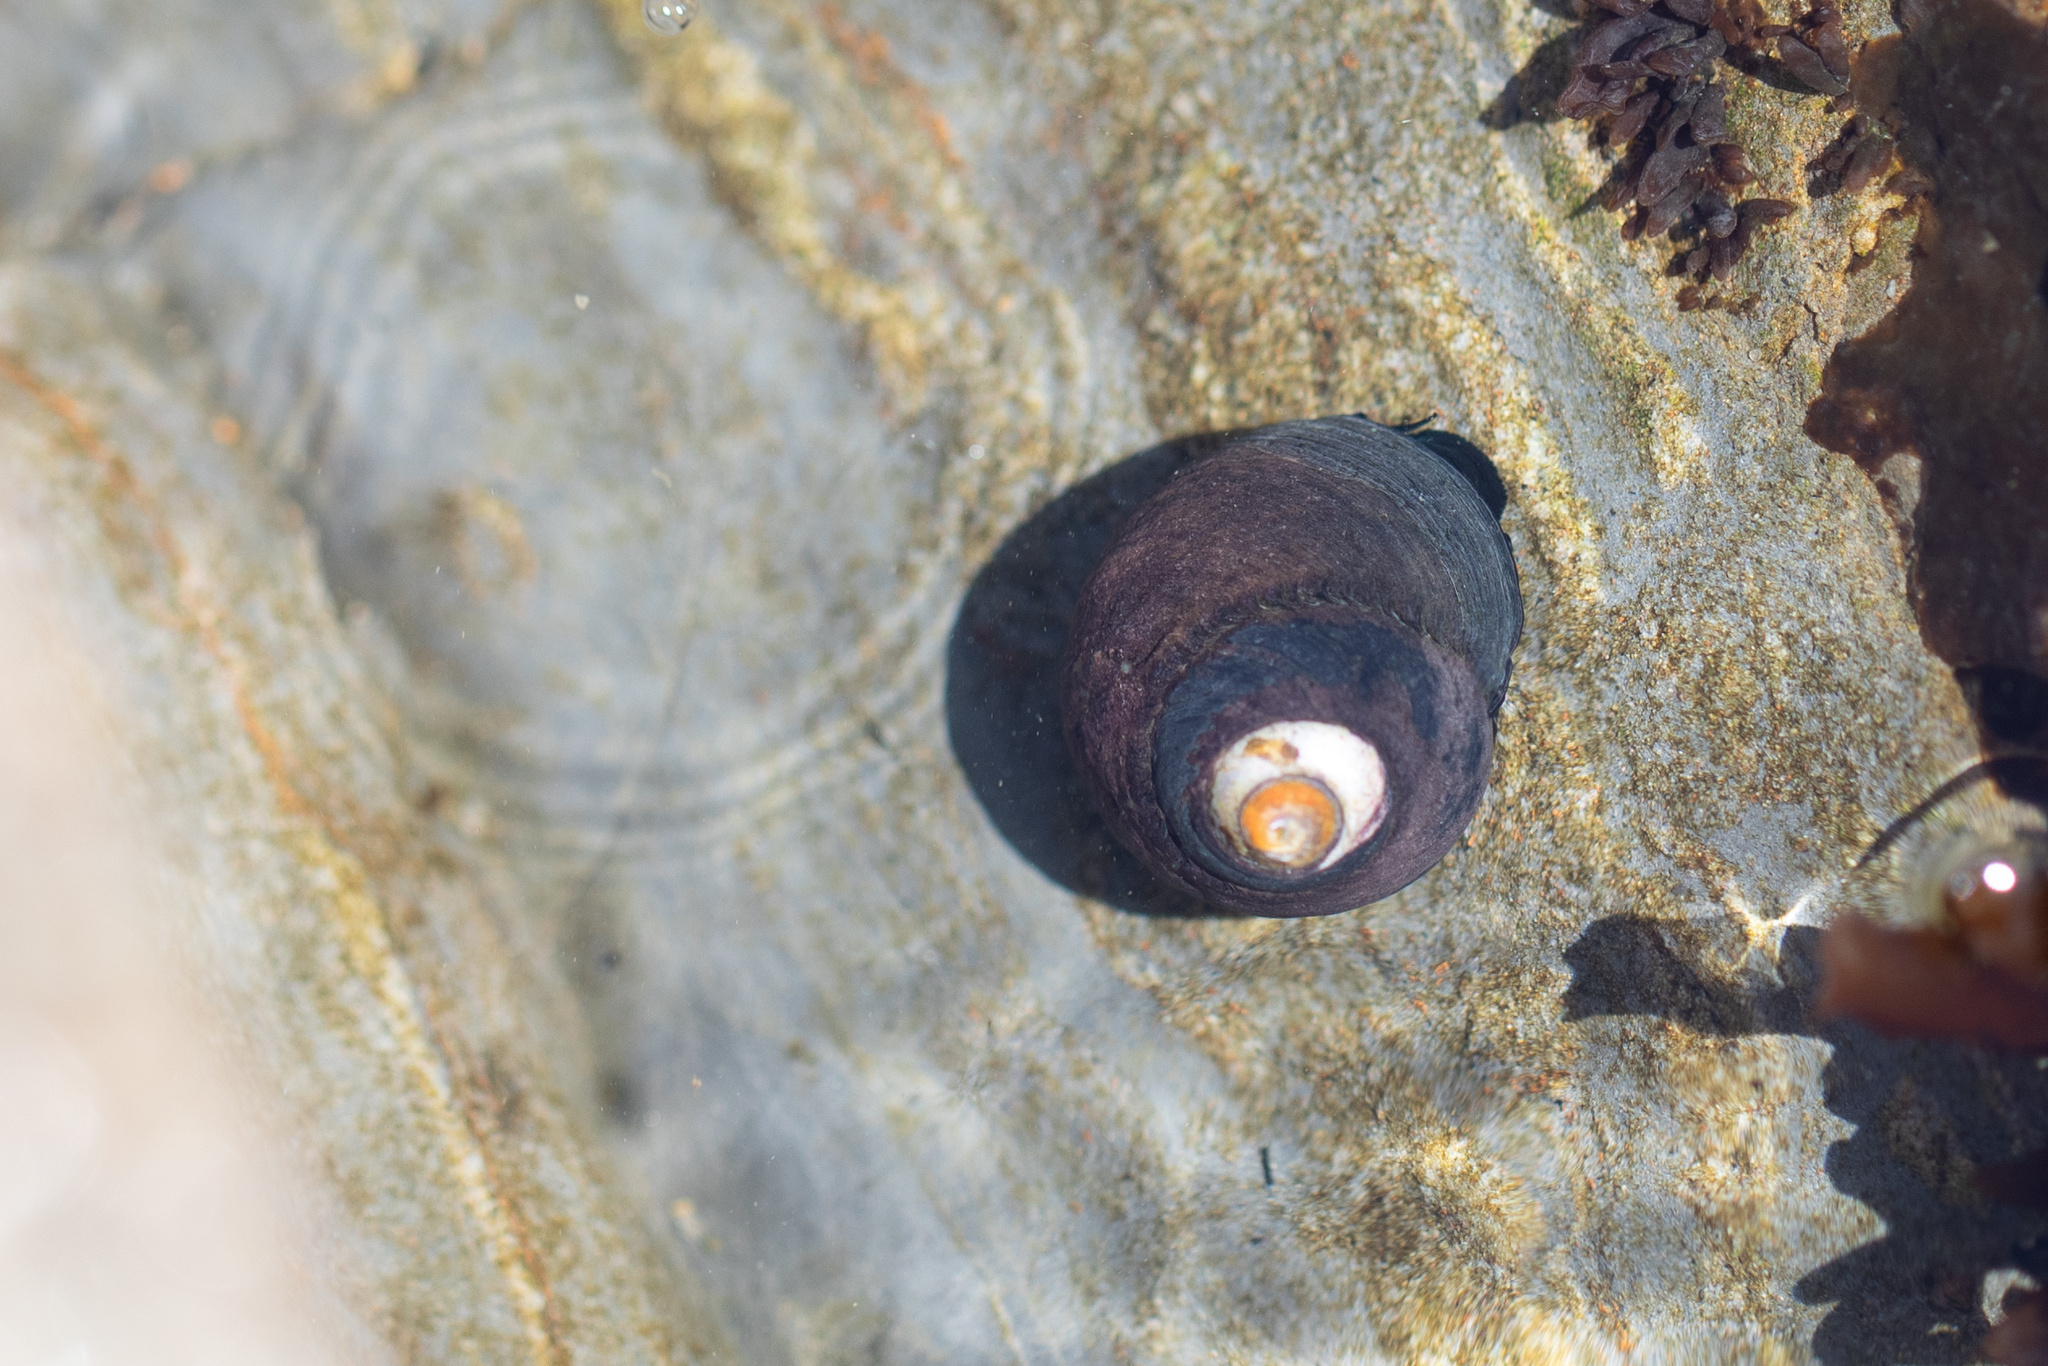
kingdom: Animalia
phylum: Mollusca
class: Gastropoda
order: Trochida
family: Tegulidae
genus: Tegula
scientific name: Tegula funebralis
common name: Black tegula
